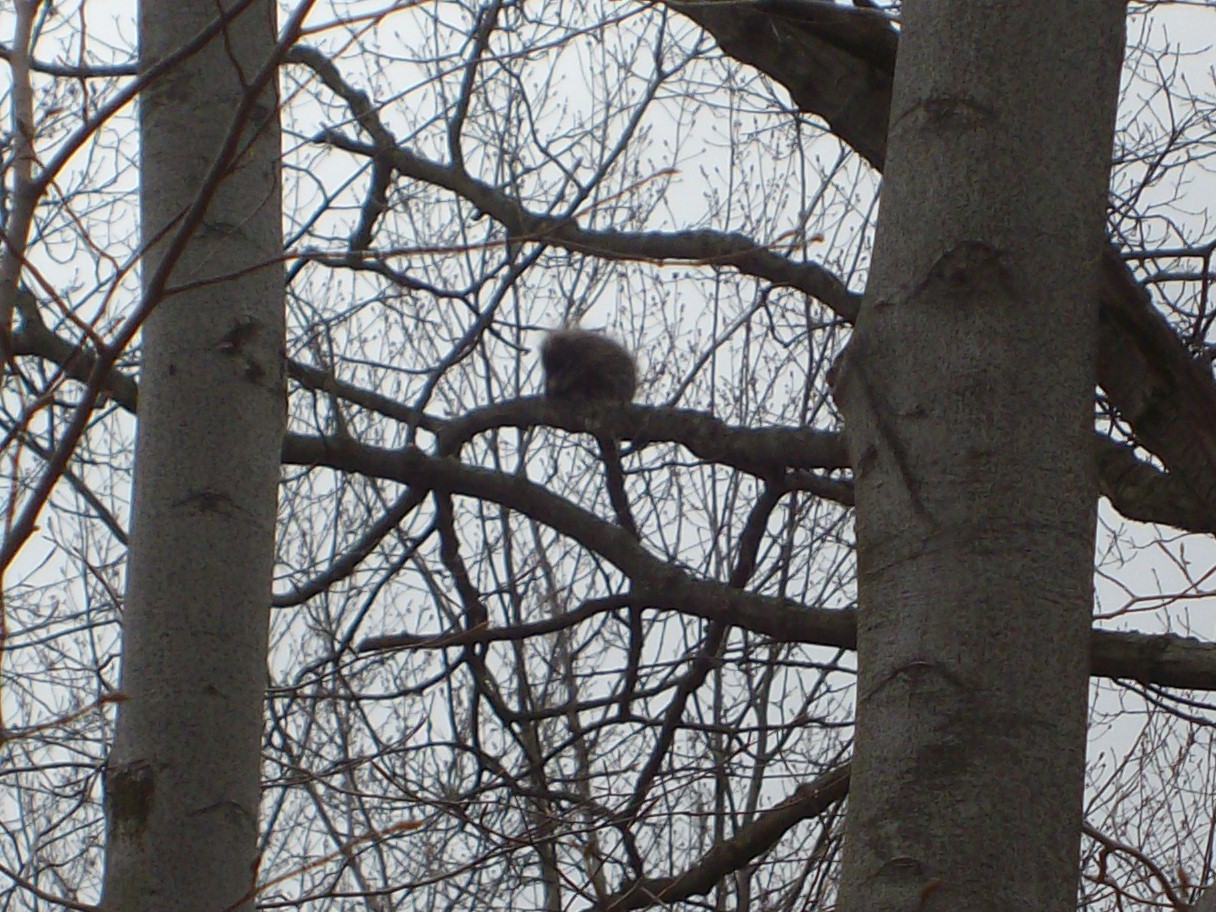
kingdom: Animalia
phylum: Chordata
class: Mammalia
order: Rodentia
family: Erethizontidae
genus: Erethizon
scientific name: Erethizon dorsatus
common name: North american porcupine
